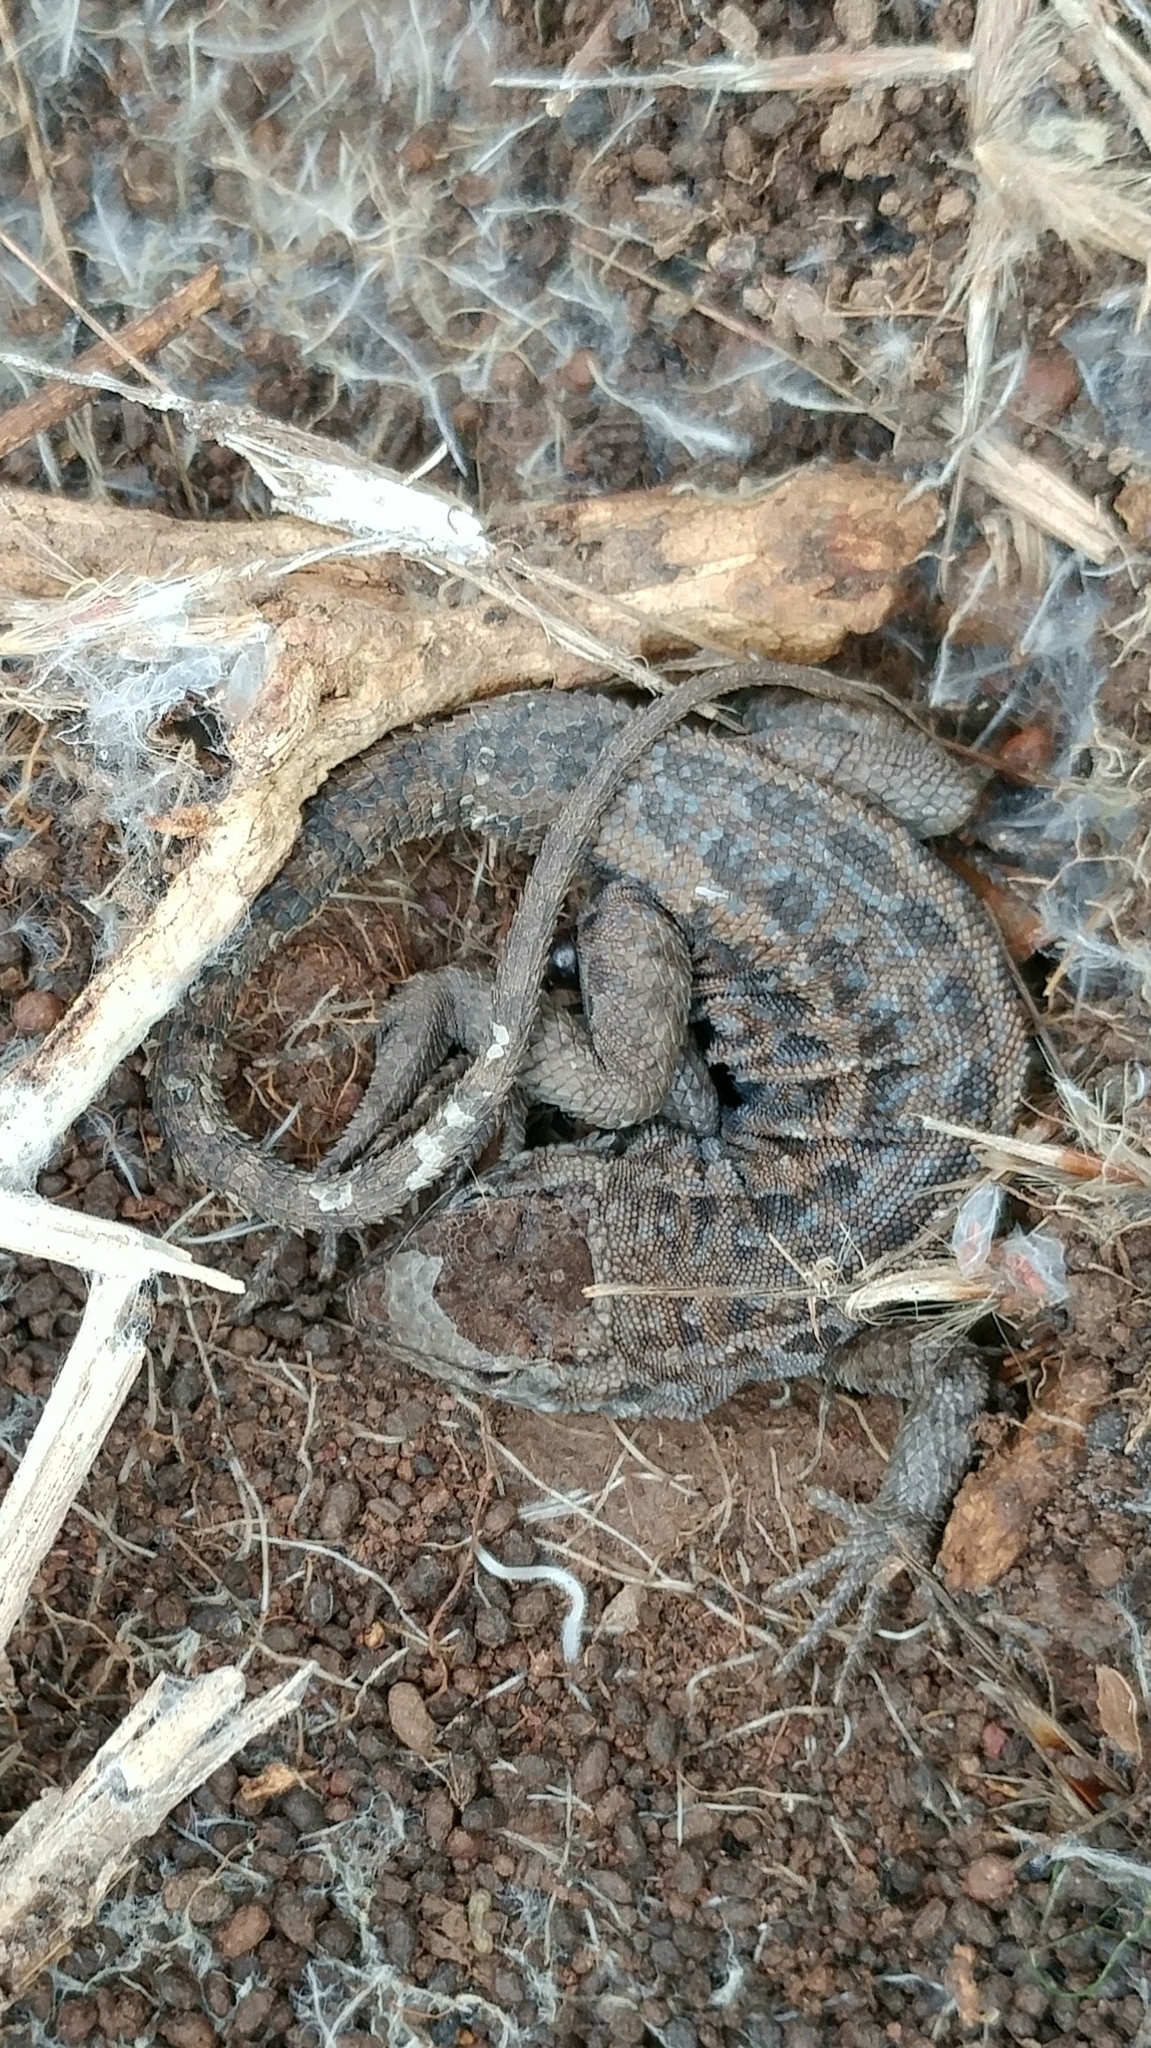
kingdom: Animalia
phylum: Chordata
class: Squamata
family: Phrynosomatidae
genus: Uta
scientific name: Uta stansburiana
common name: Side-blotched lizard
